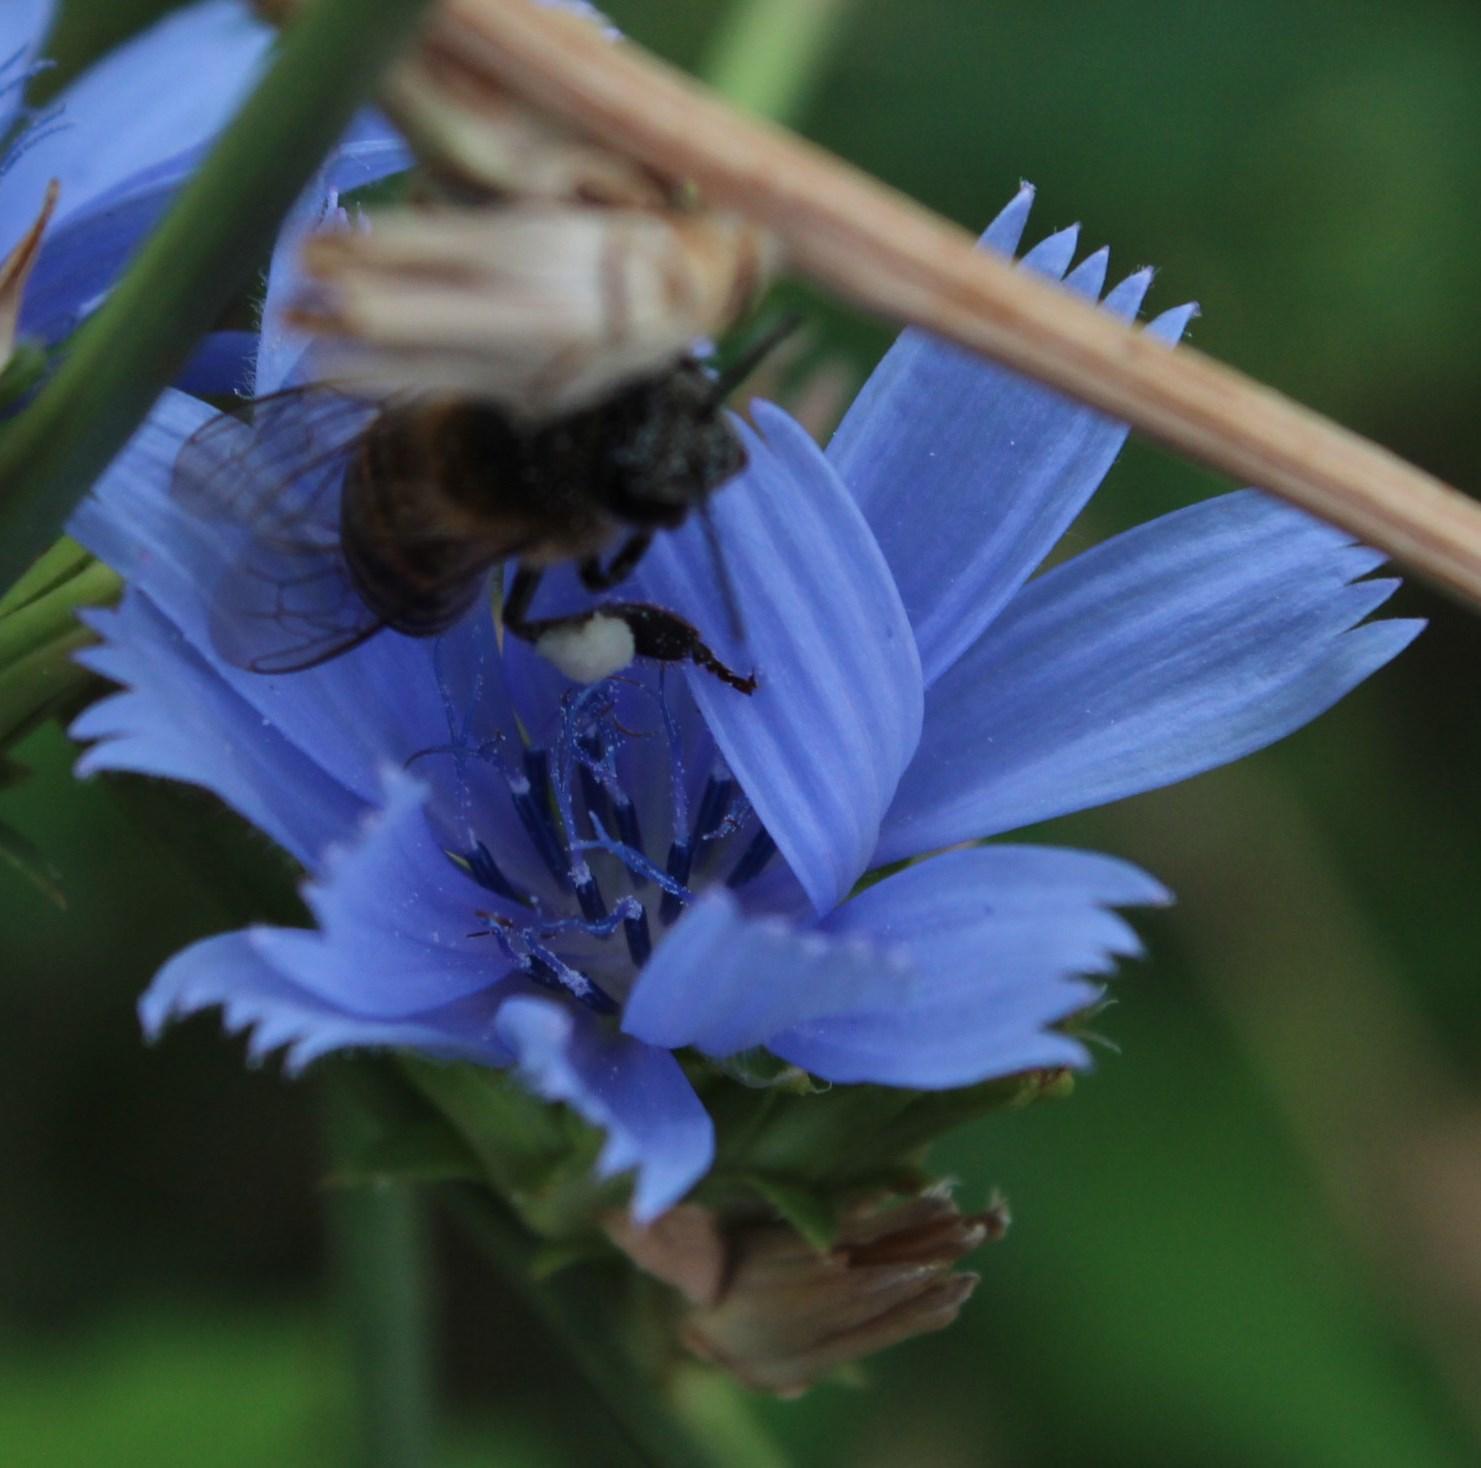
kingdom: Animalia
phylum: Arthropoda
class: Insecta
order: Hymenoptera
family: Apidae
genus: Apis
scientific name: Apis mellifera
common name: Honey bee
